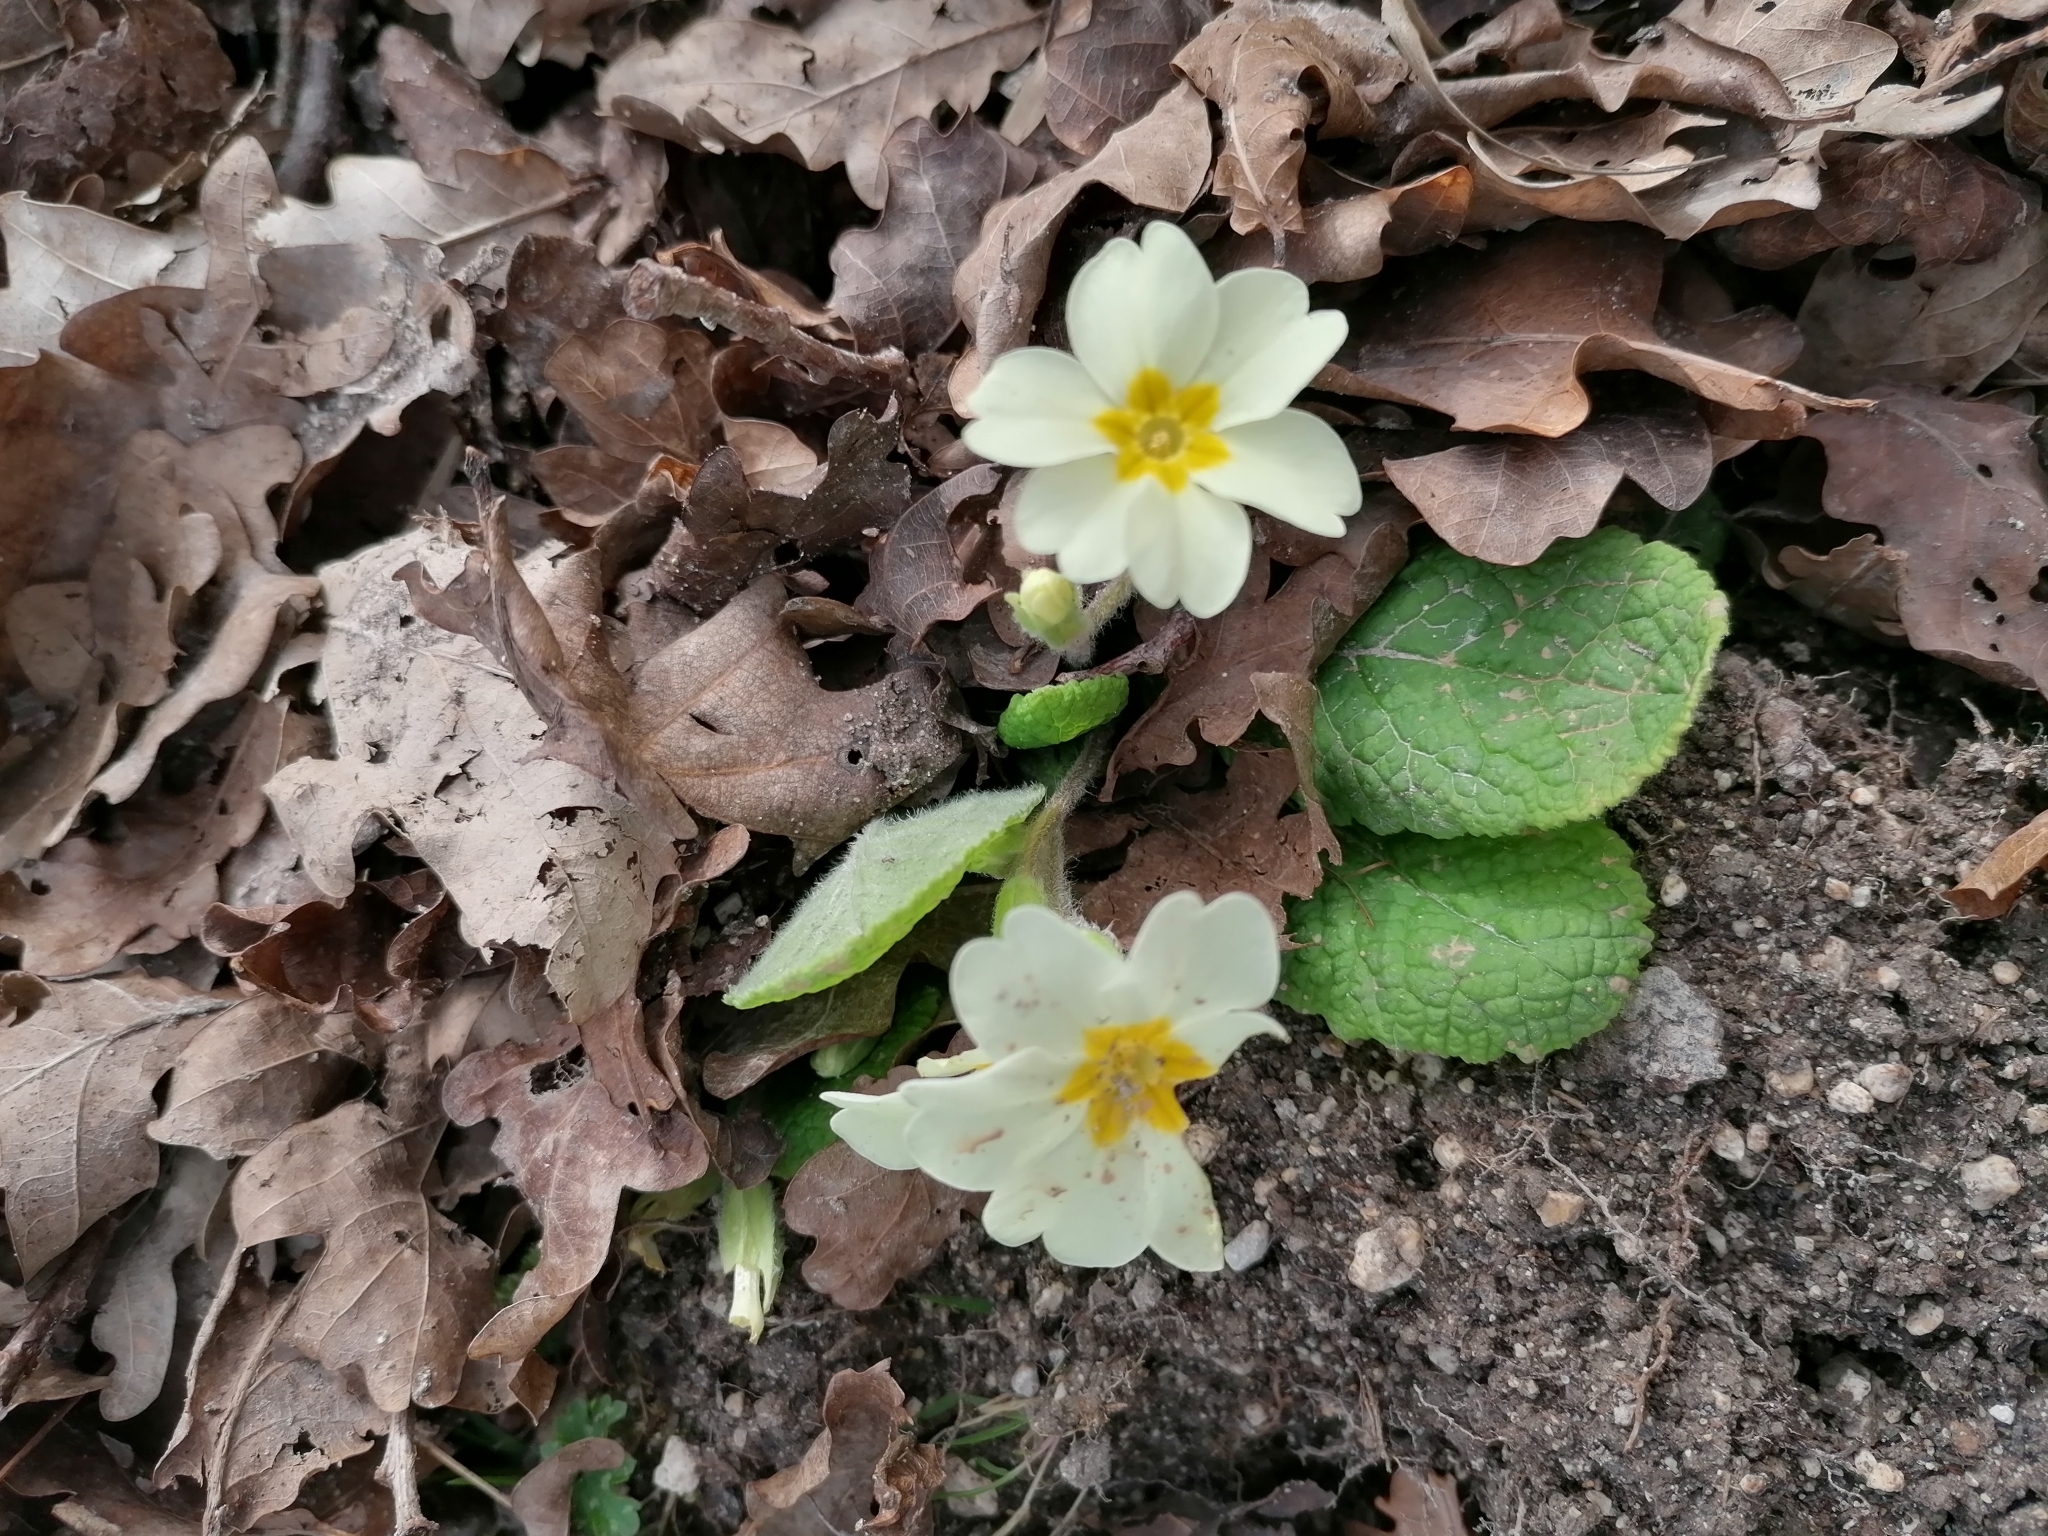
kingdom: Plantae
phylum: Tracheophyta
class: Magnoliopsida
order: Ericales
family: Primulaceae
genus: Primula
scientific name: Primula vulgaris
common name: Primrose
